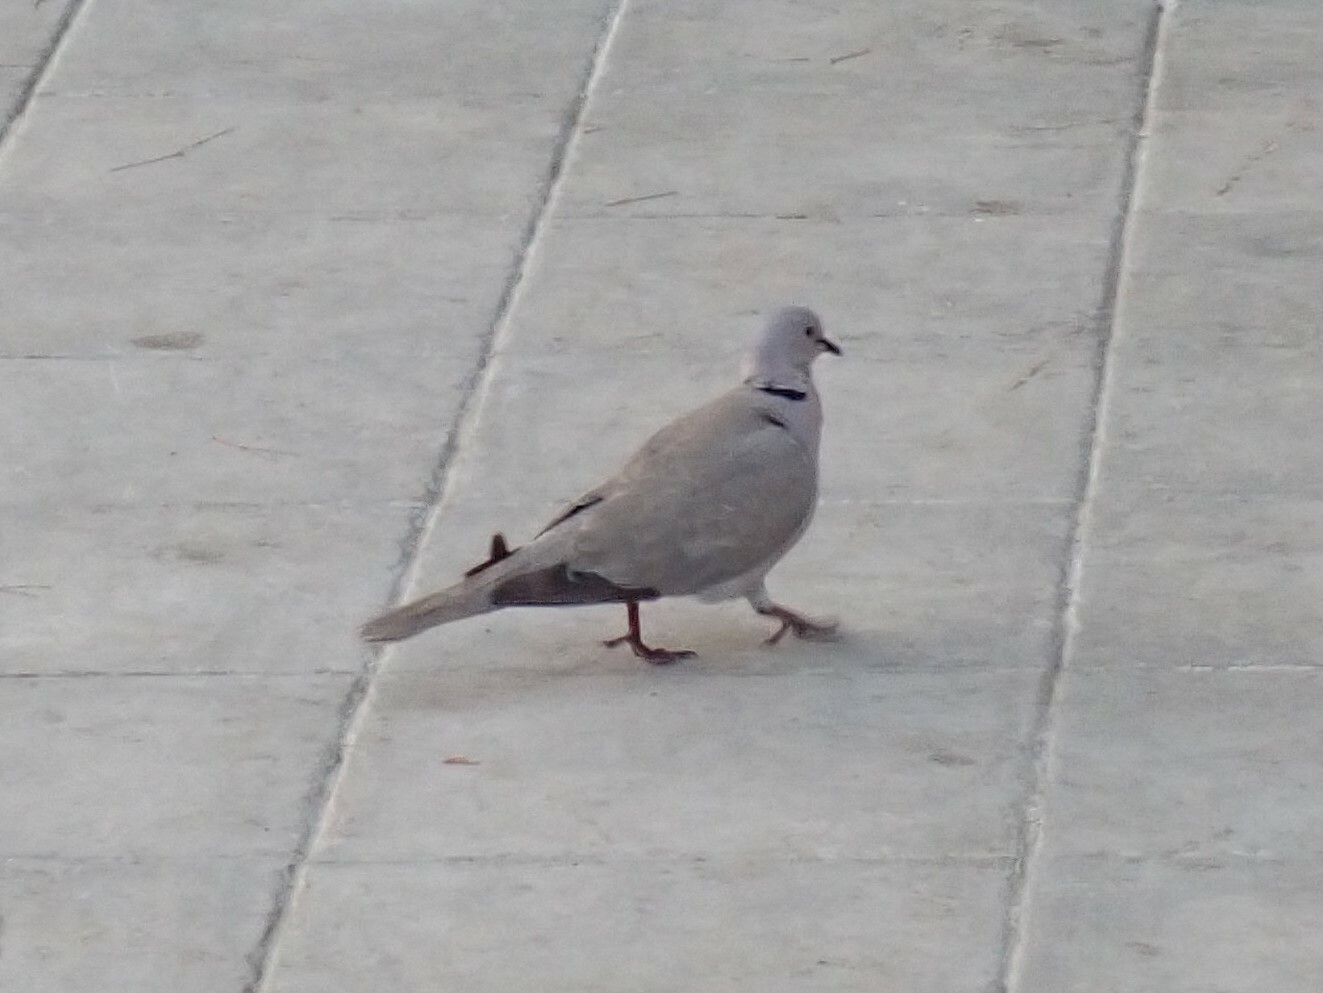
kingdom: Animalia
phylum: Chordata
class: Aves
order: Columbiformes
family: Columbidae
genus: Streptopelia
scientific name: Streptopelia decaocto
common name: Eurasian collared dove
